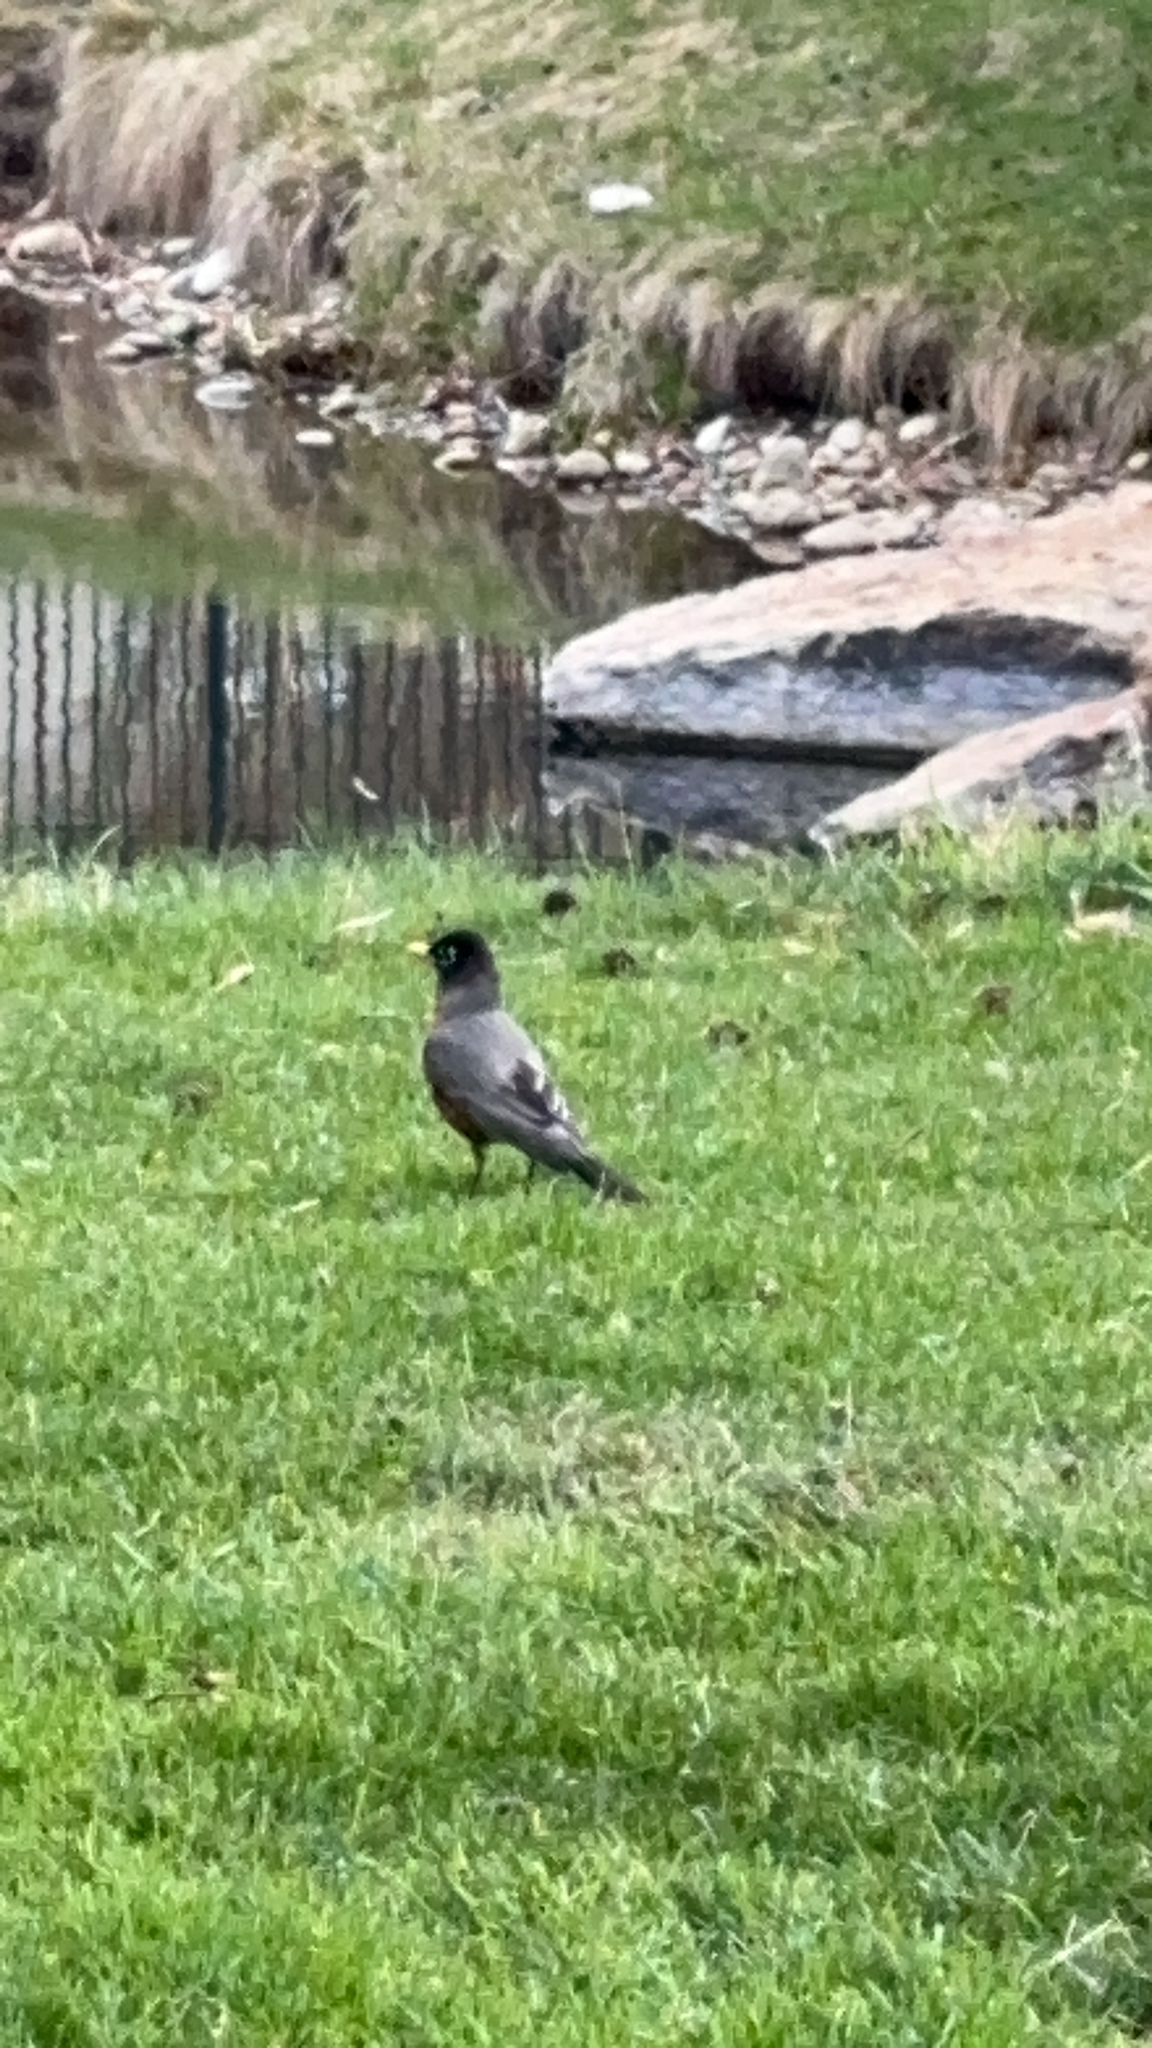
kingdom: Animalia
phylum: Chordata
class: Aves
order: Passeriformes
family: Turdidae
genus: Turdus
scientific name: Turdus migratorius
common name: American robin
